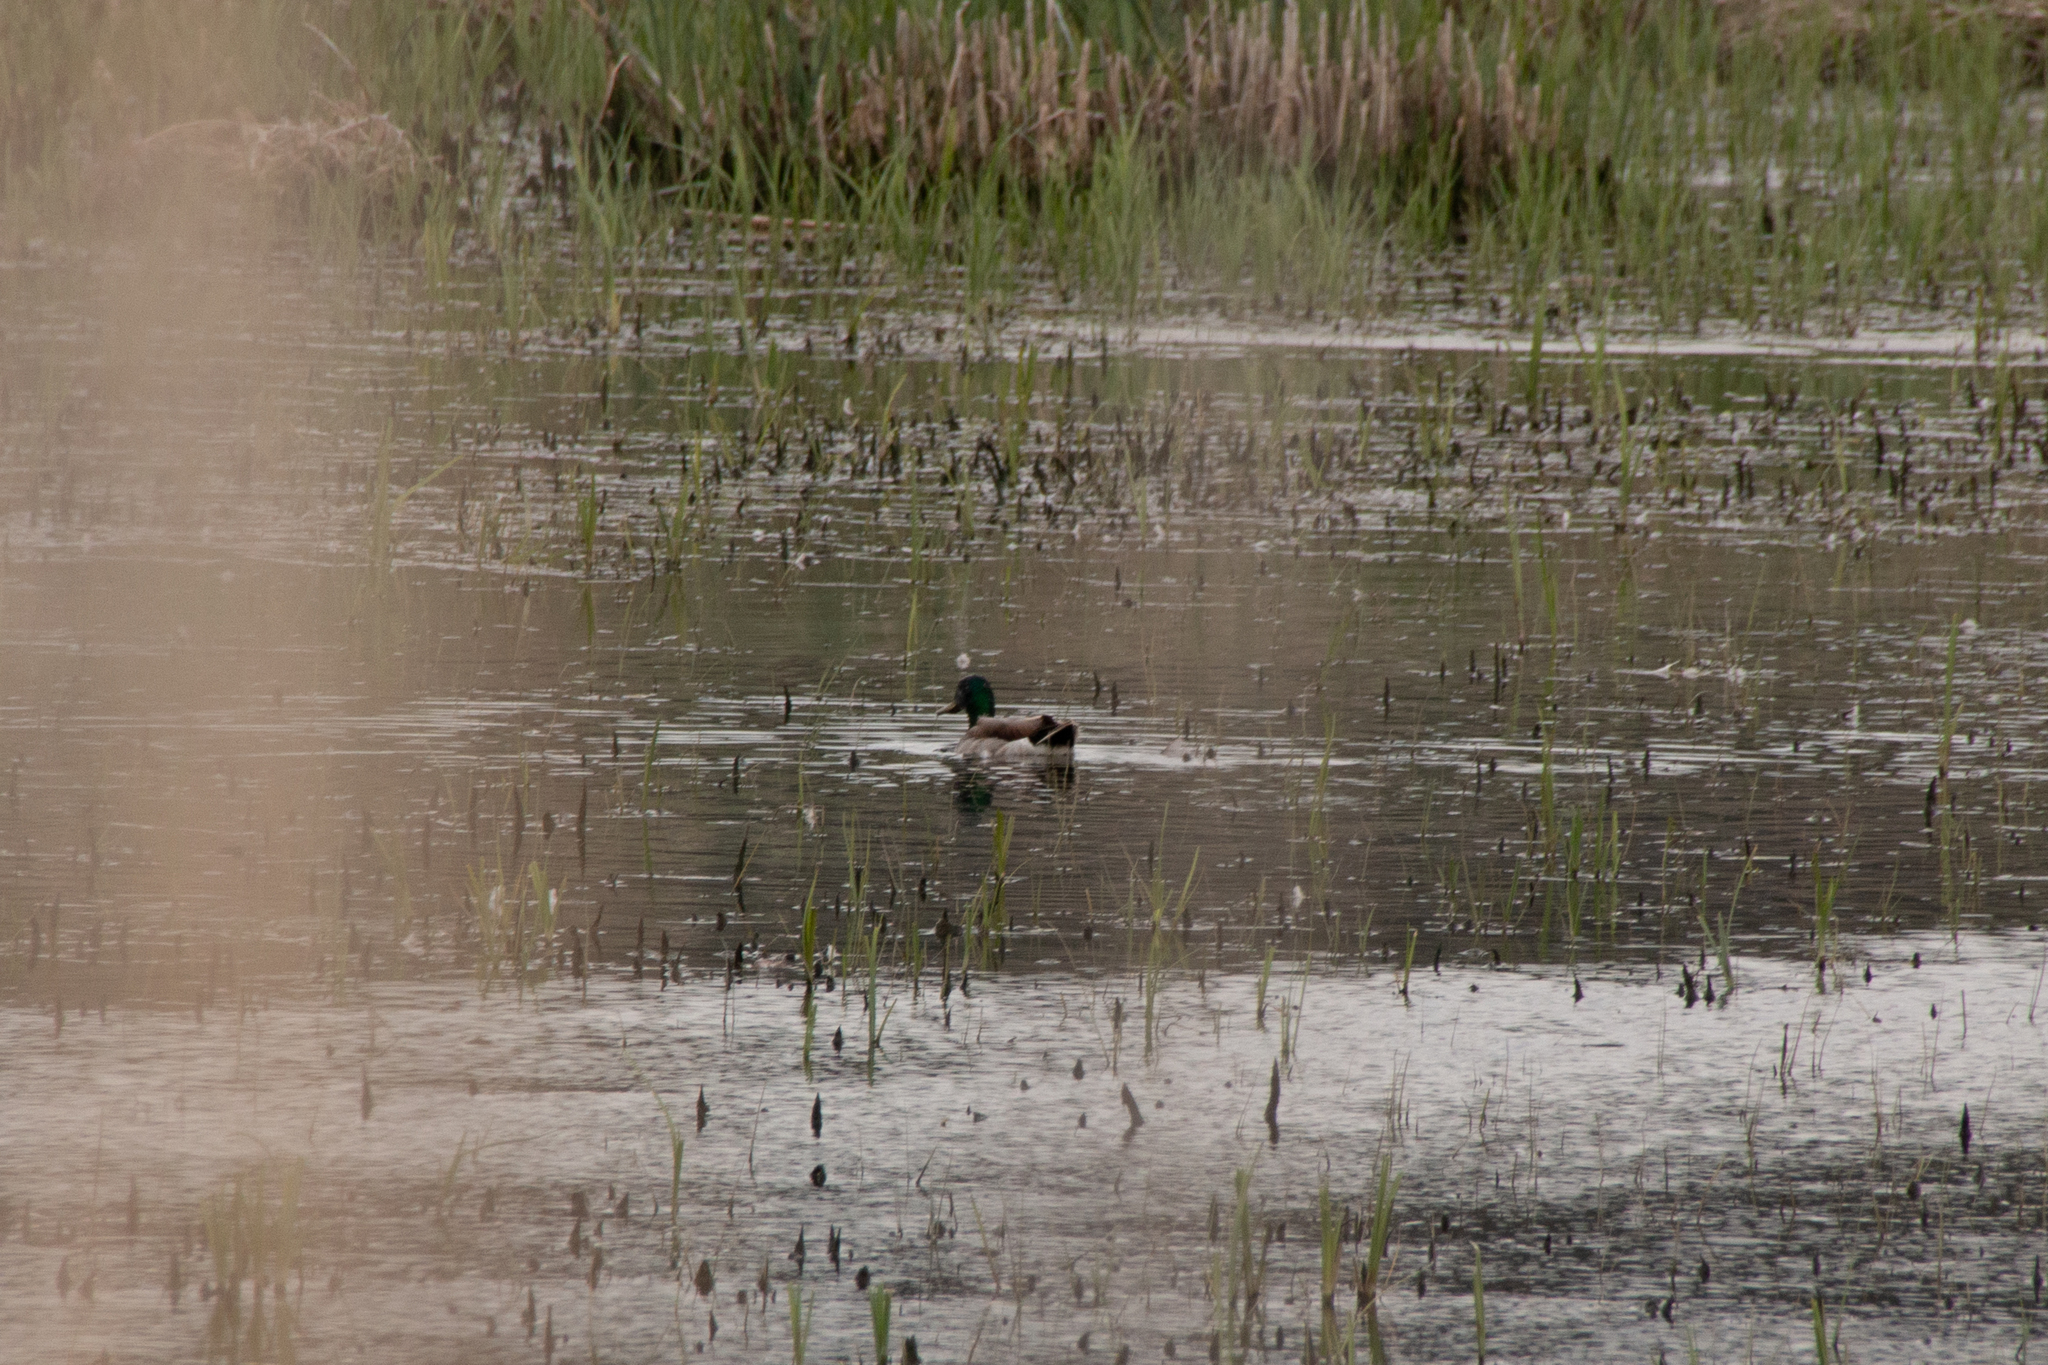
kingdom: Animalia
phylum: Chordata
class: Aves
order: Anseriformes
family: Anatidae
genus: Anas
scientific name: Anas platyrhynchos
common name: Mallard
